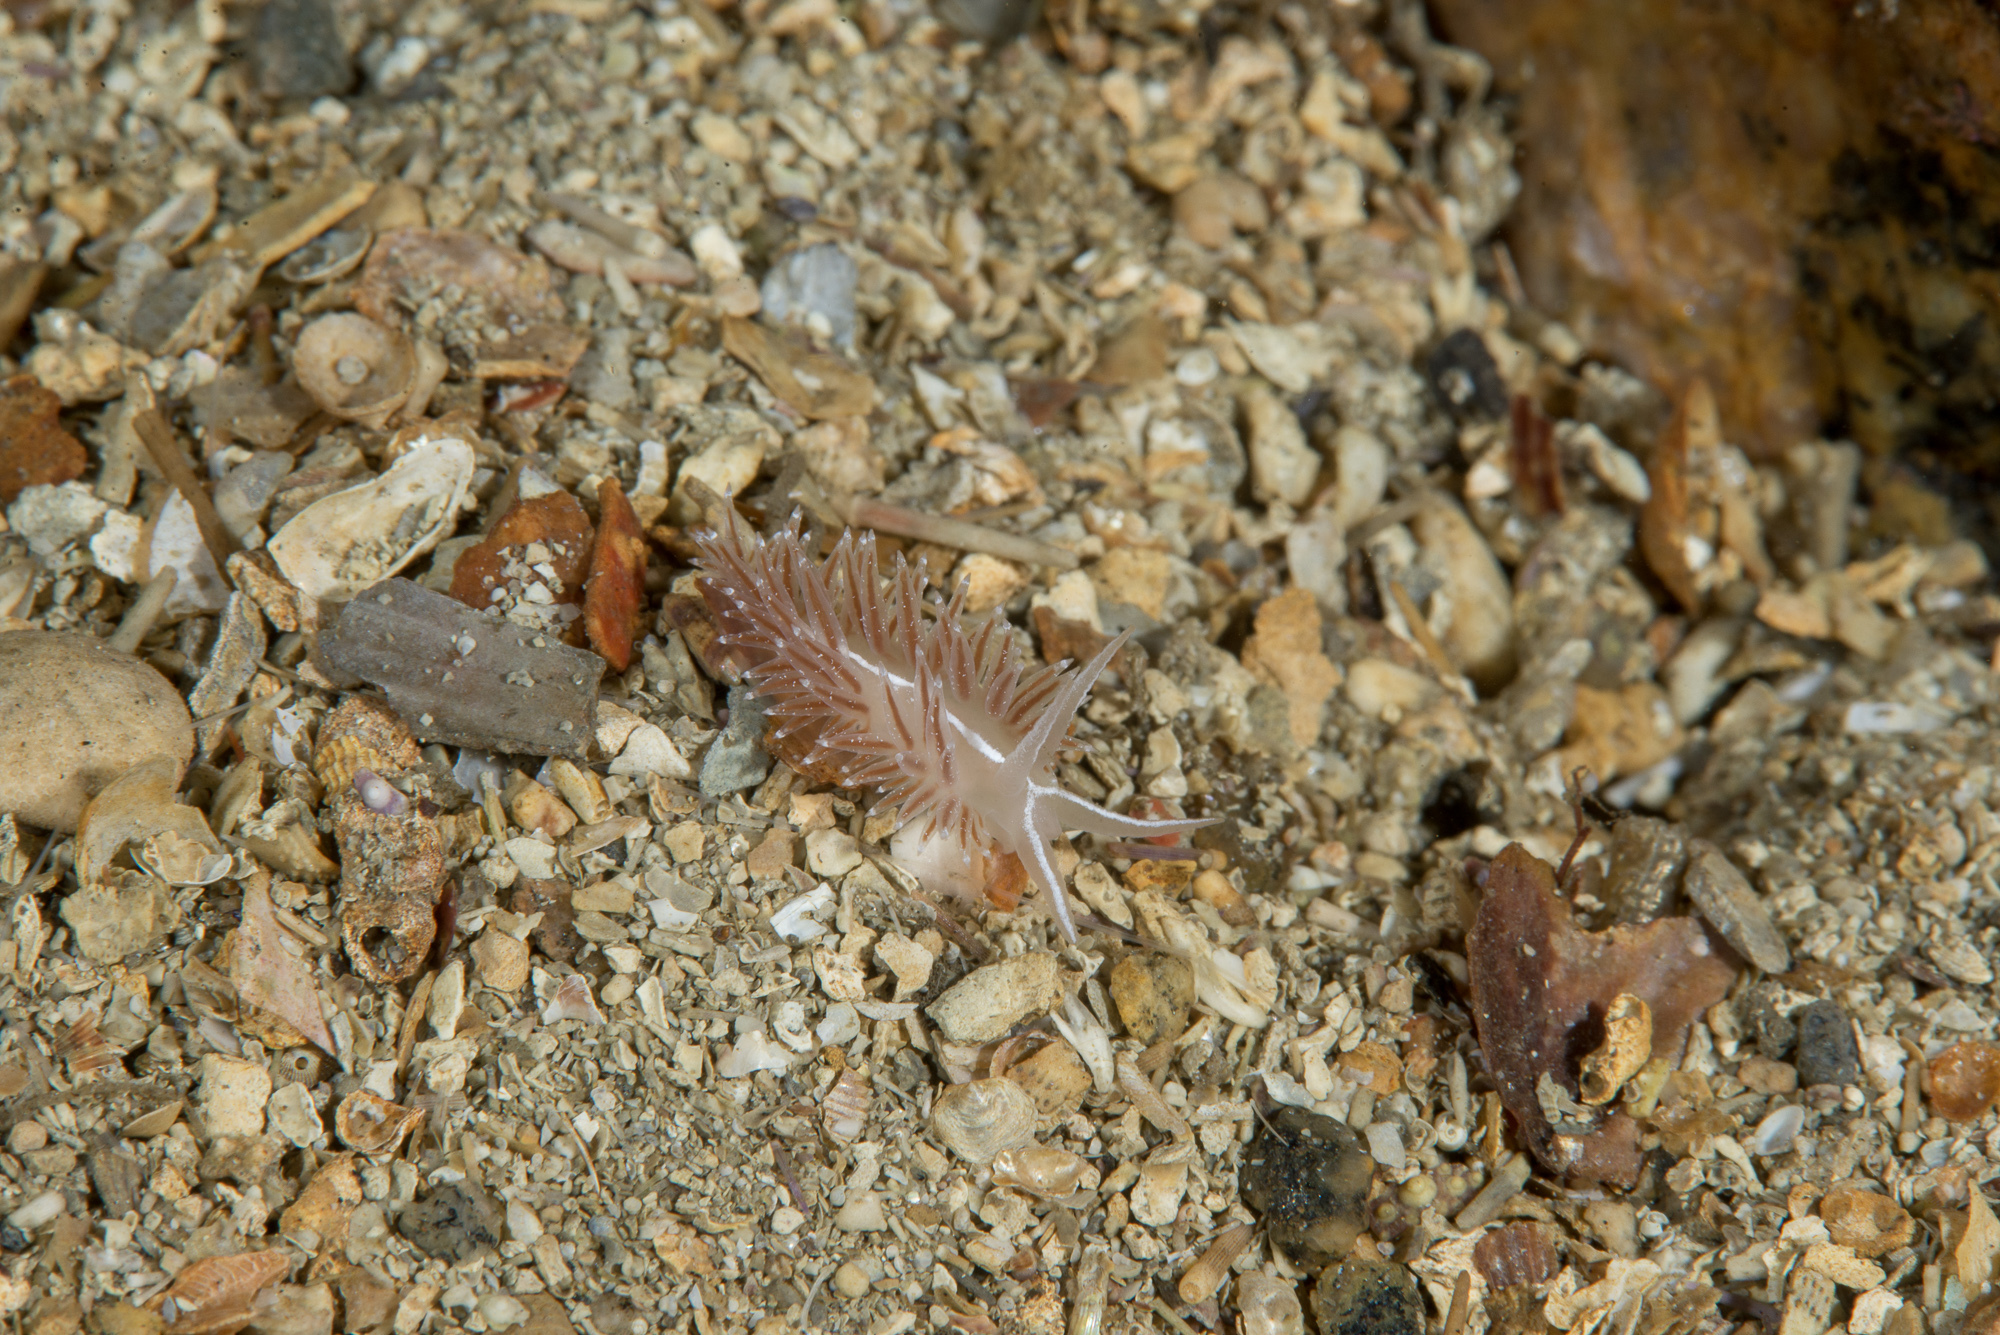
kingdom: Animalia
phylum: Mollusca
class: Gastropoda
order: Nudibranchia
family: Coryphellidae
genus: Coryphella
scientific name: Coryphella orjani
